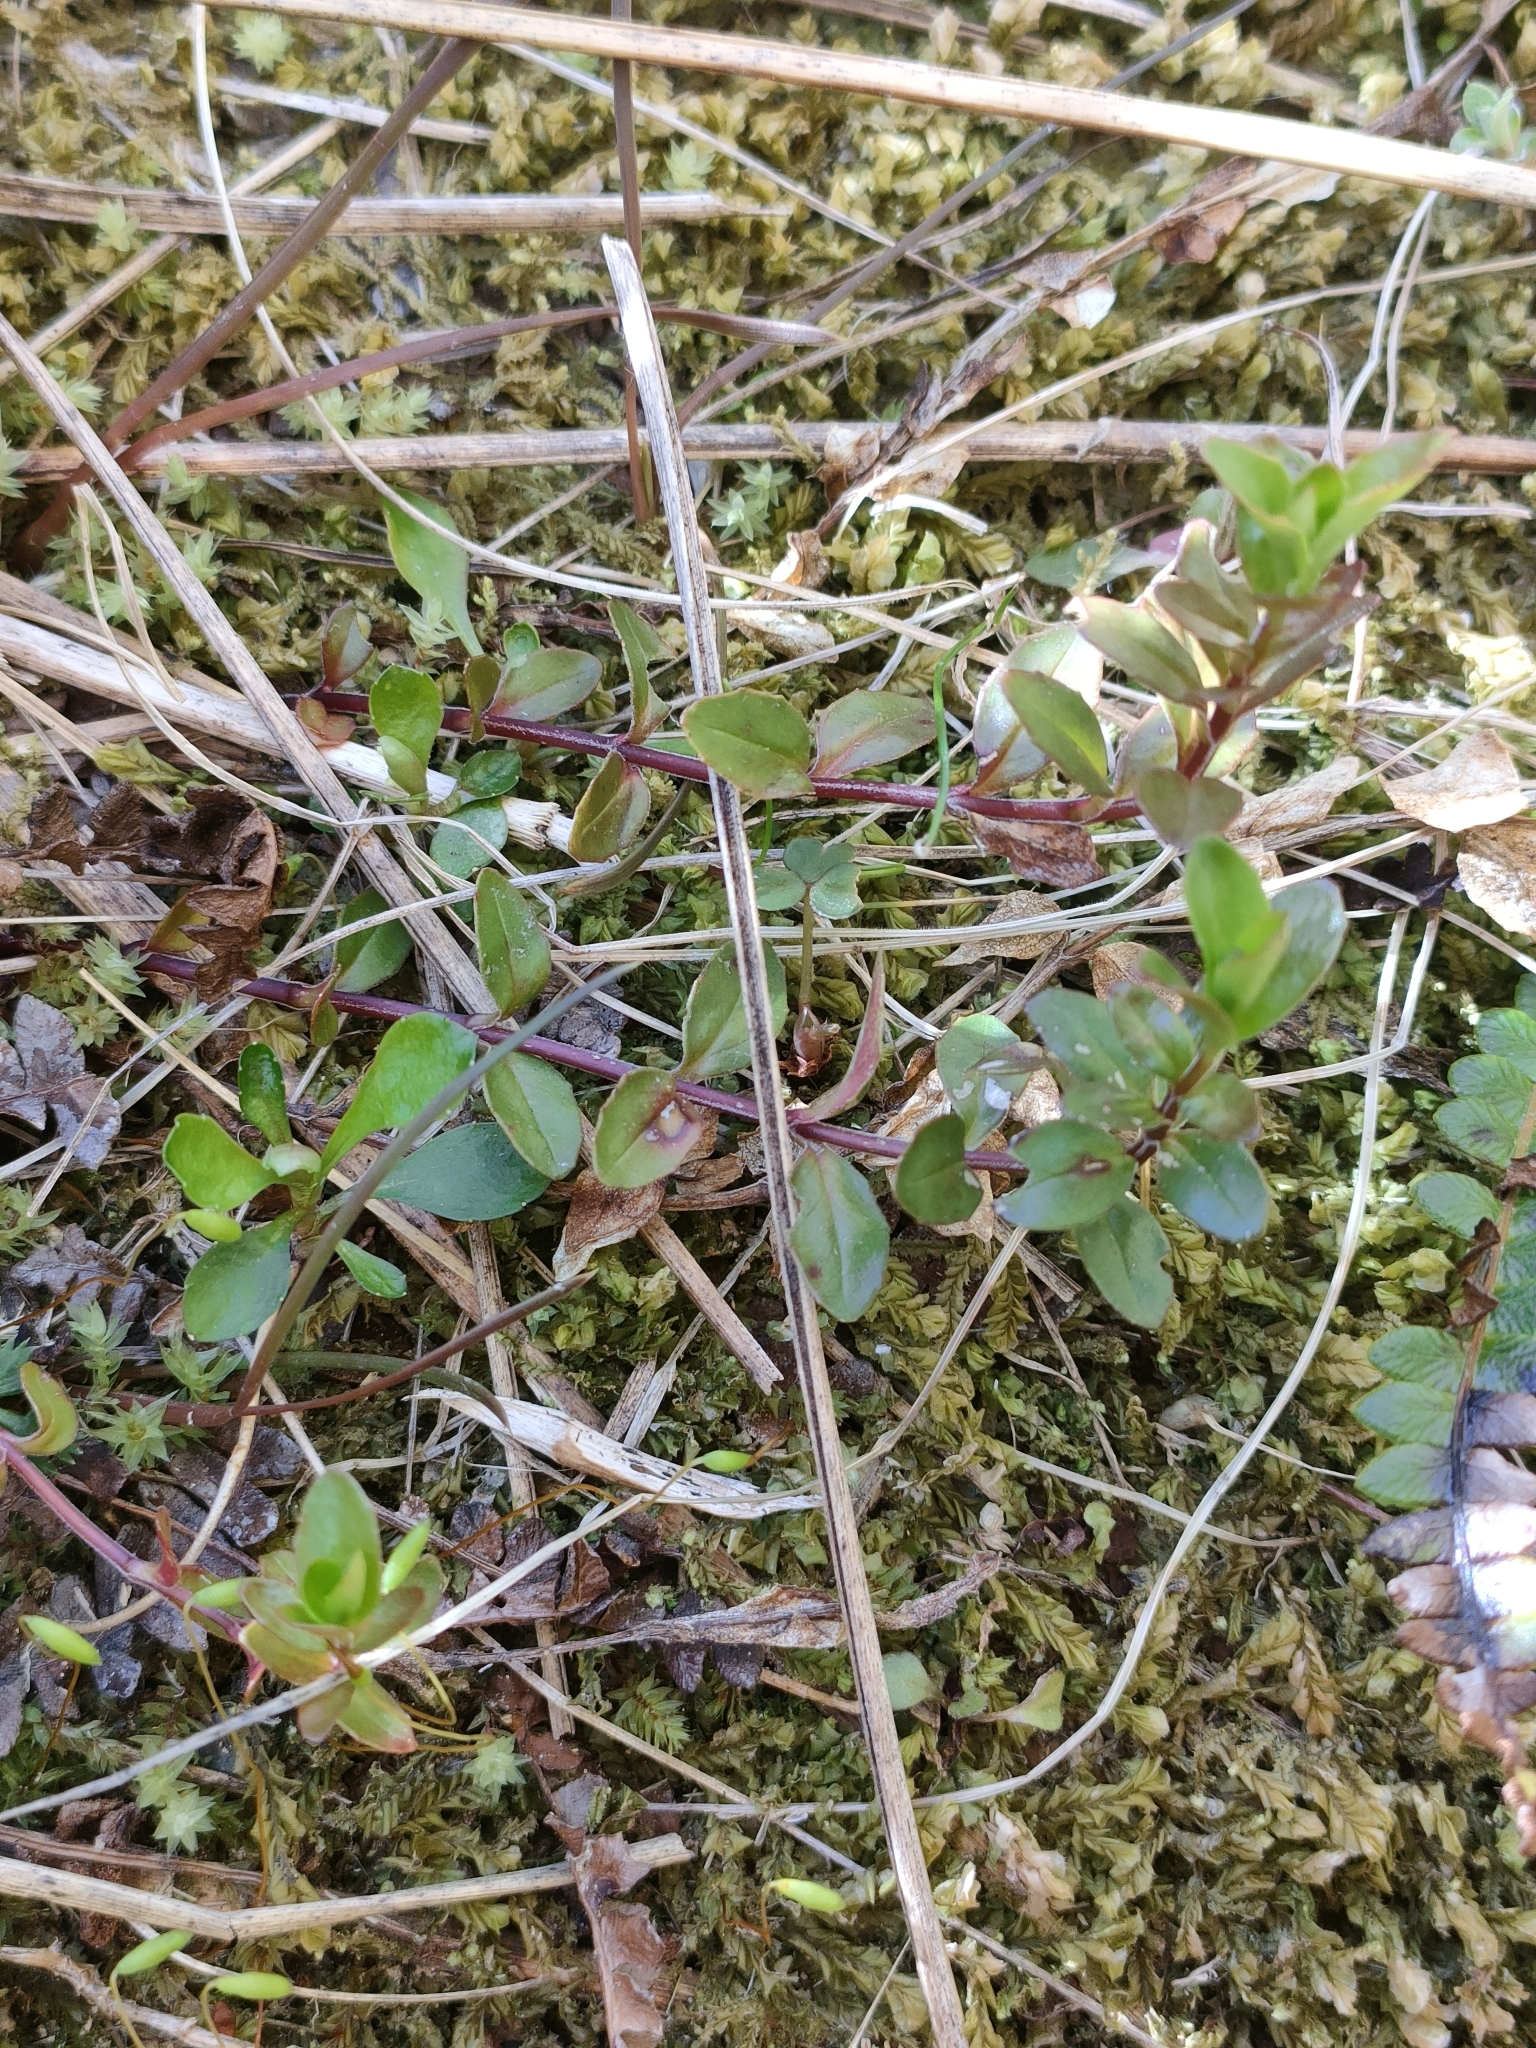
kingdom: Plantae
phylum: Tracheophyta
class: Magnoliopsida
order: Myrtales
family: Onagraceae
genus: Epilobium
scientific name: Epilobium alsinoides
